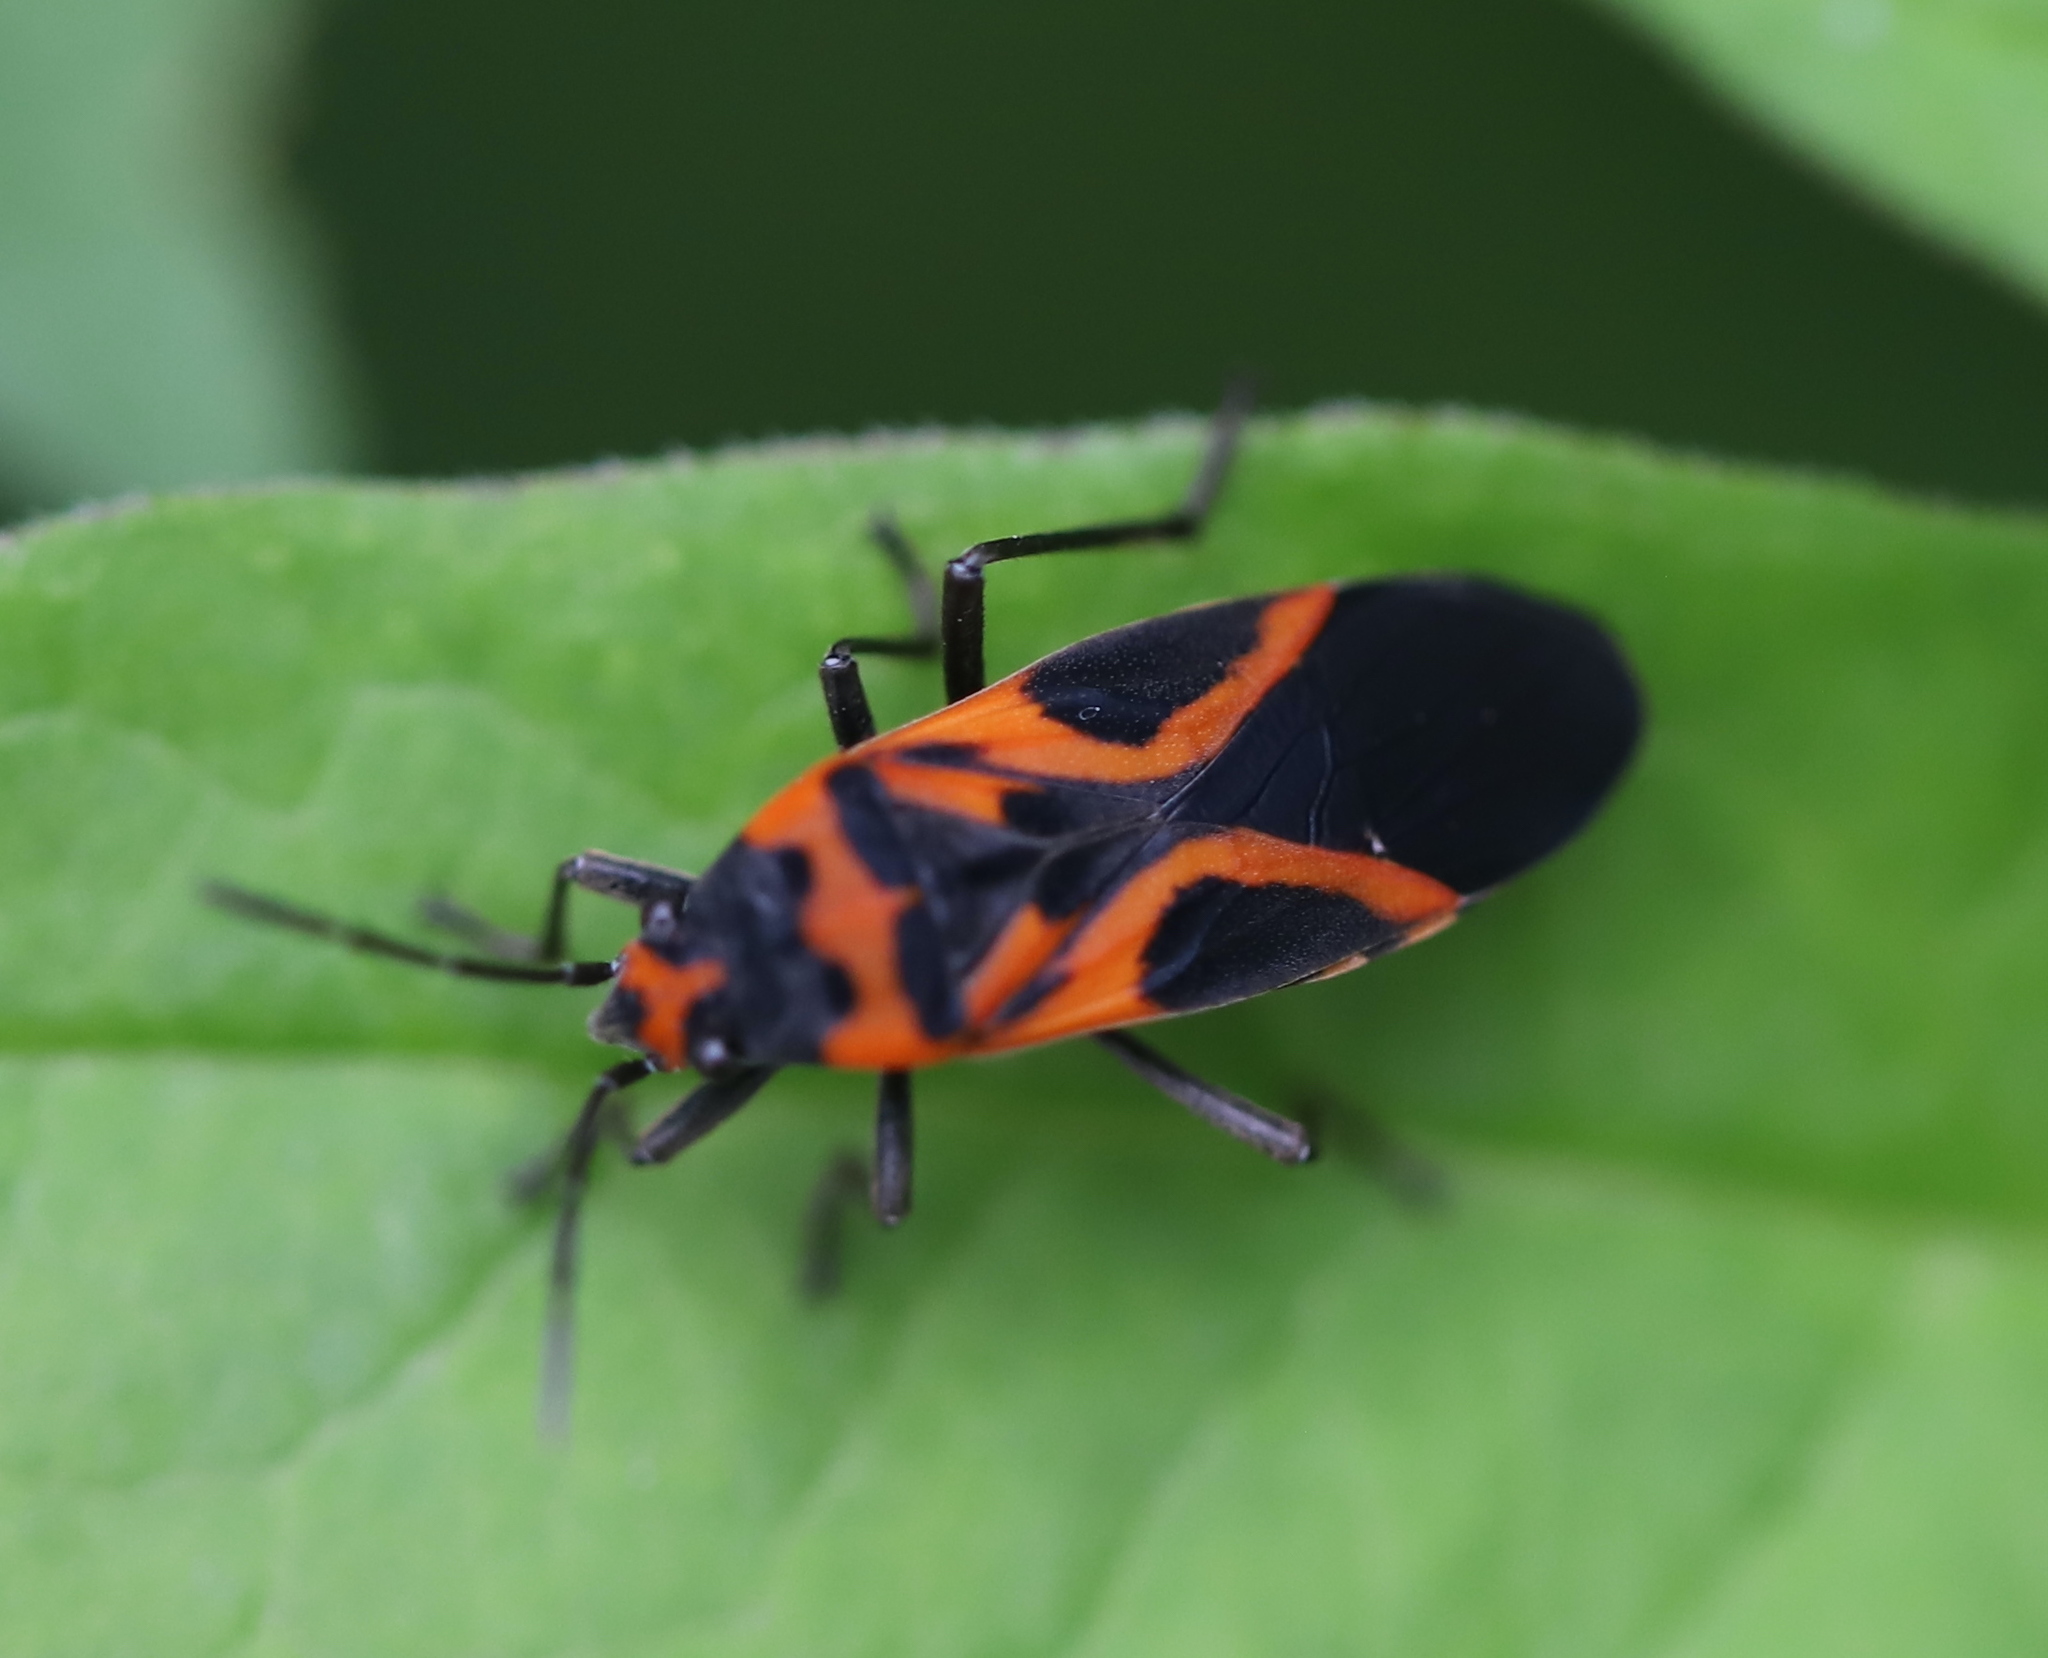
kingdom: Animalia
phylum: Arthropoda
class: Insecta
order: Hemiptera
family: Lygaeidae
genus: Lygaeus
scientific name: Lygaeus turcicus
